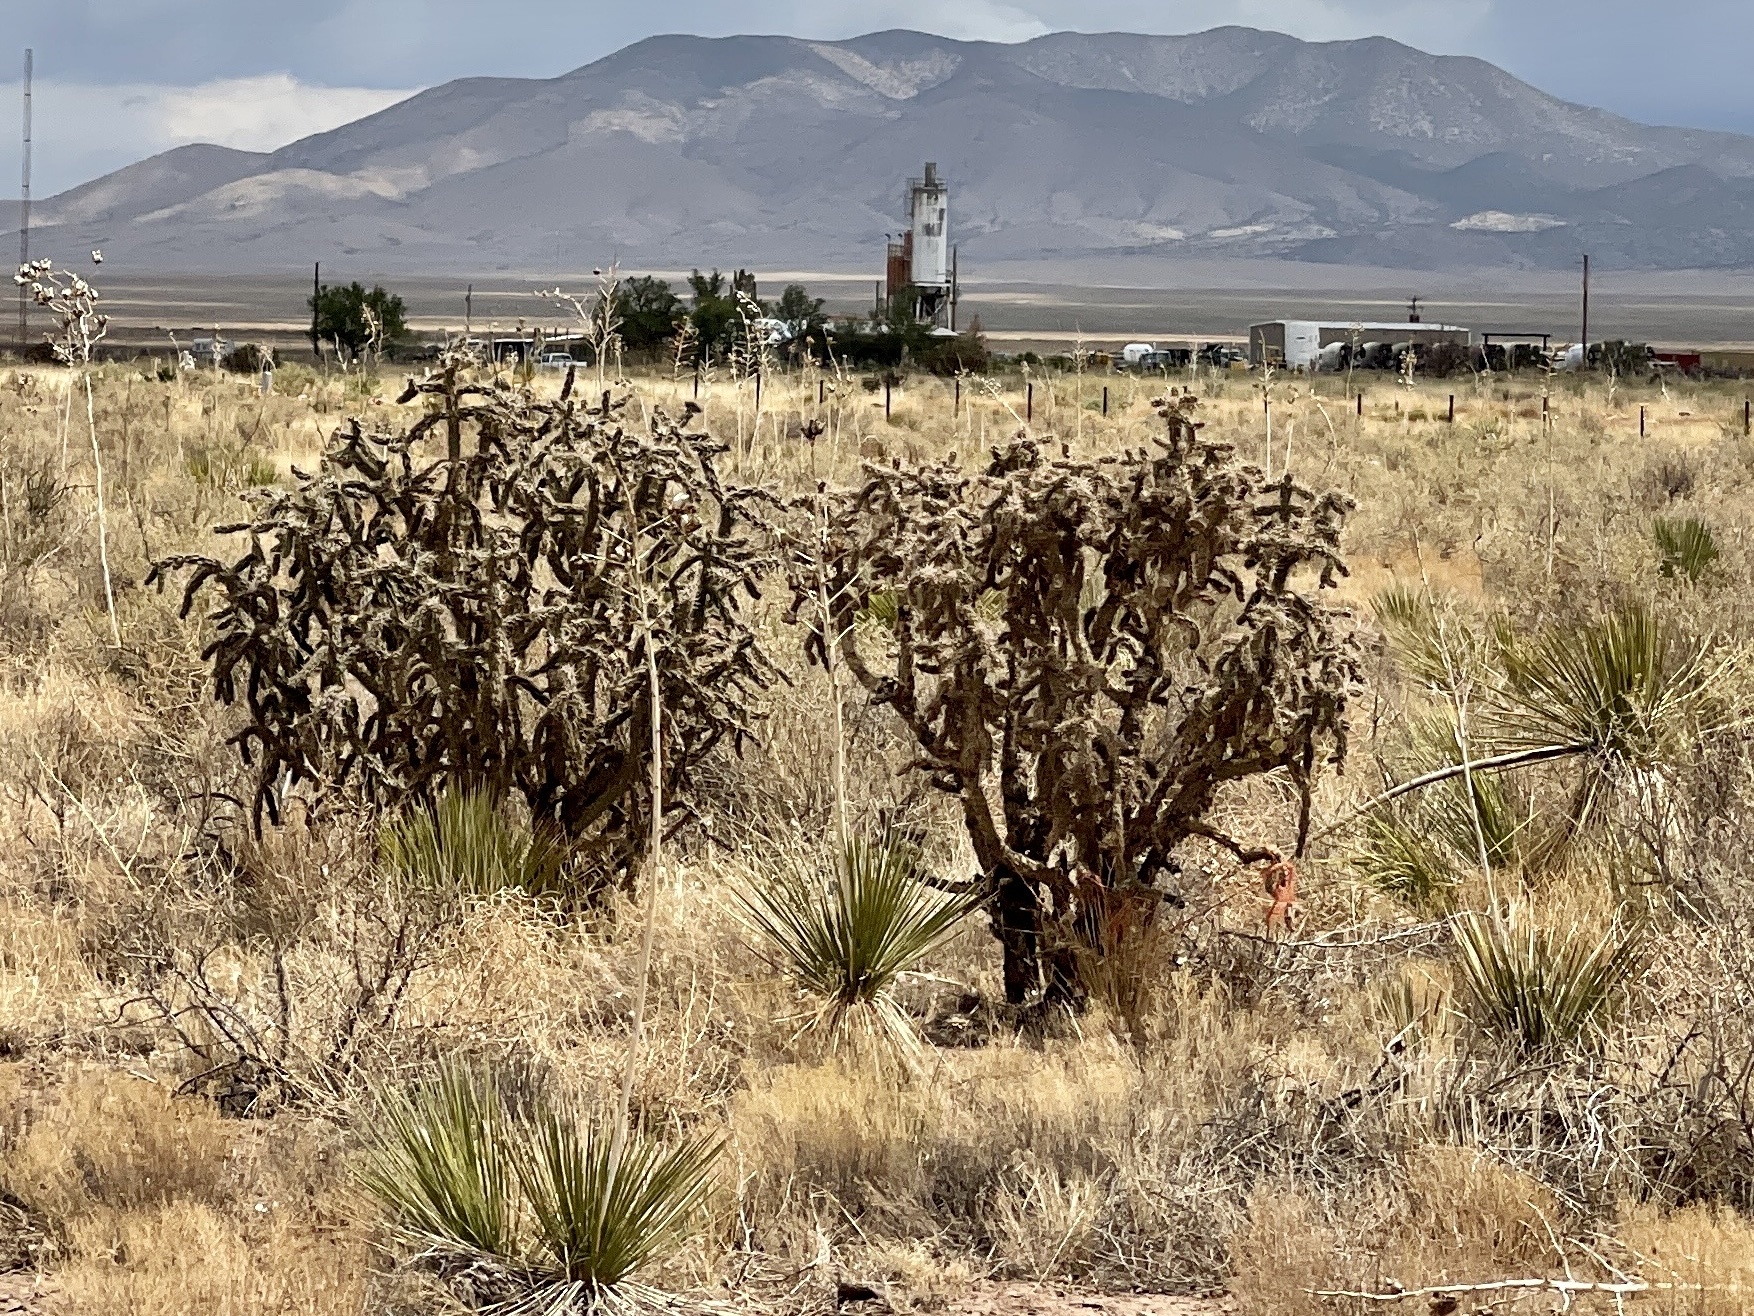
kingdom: Plantae
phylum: Tracheophyta
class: Magnoliopsida
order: Caryophyllales
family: Cactaceae
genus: Cylindropuntia
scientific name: Cylindropuntia imbricata
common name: Candelabrum cactus
